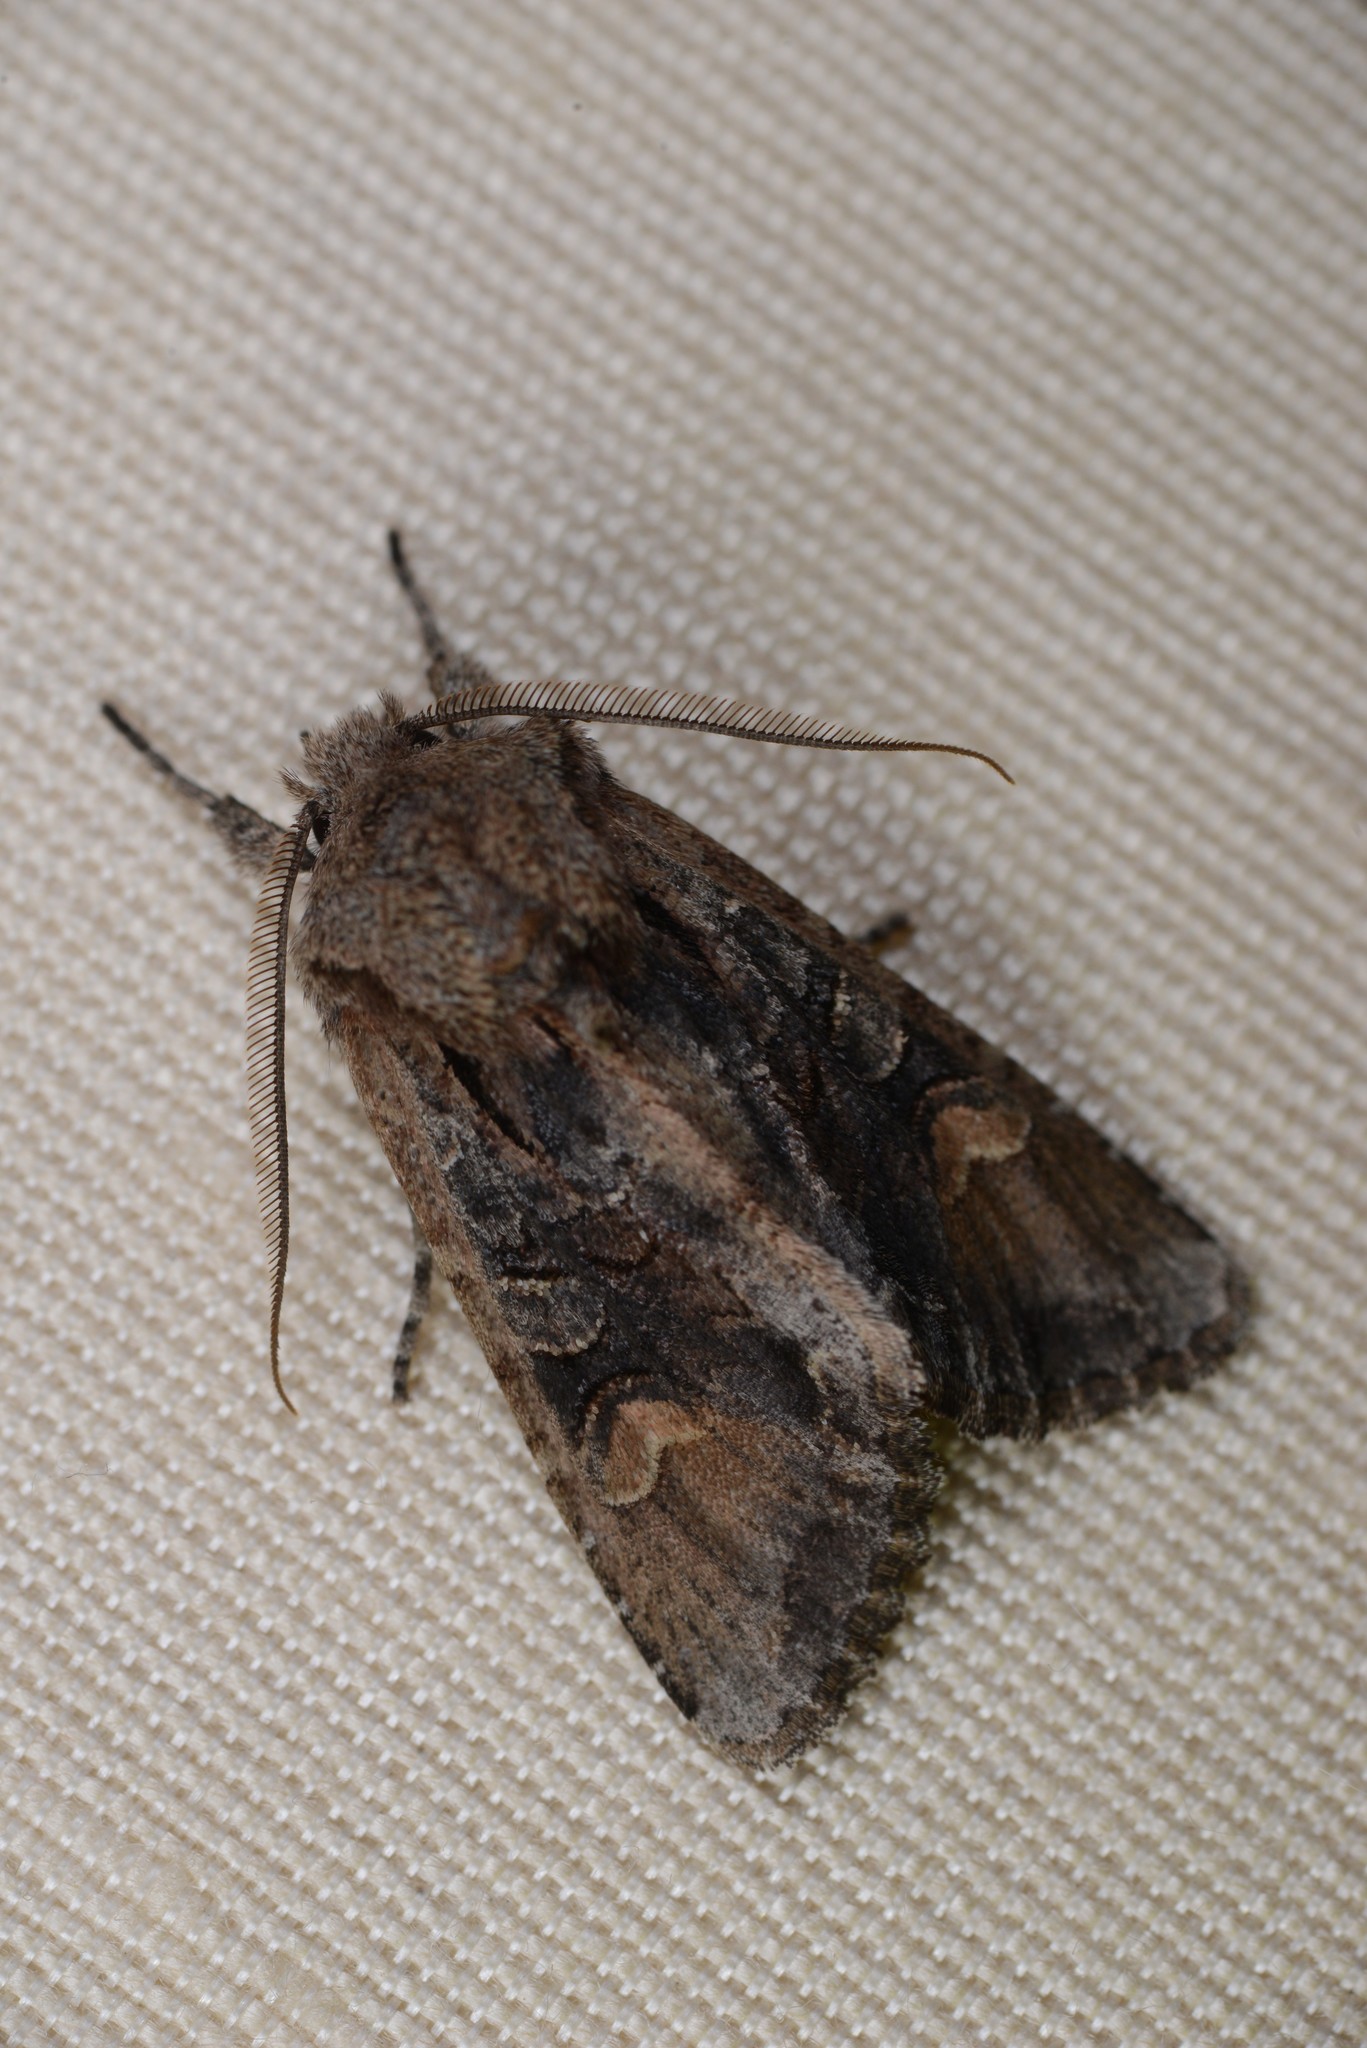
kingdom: Animalia
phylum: Arthropoda
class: Insecta
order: Lepidoptera
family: Noctuidae
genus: Ichneutica
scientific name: Ichneutica insignis
